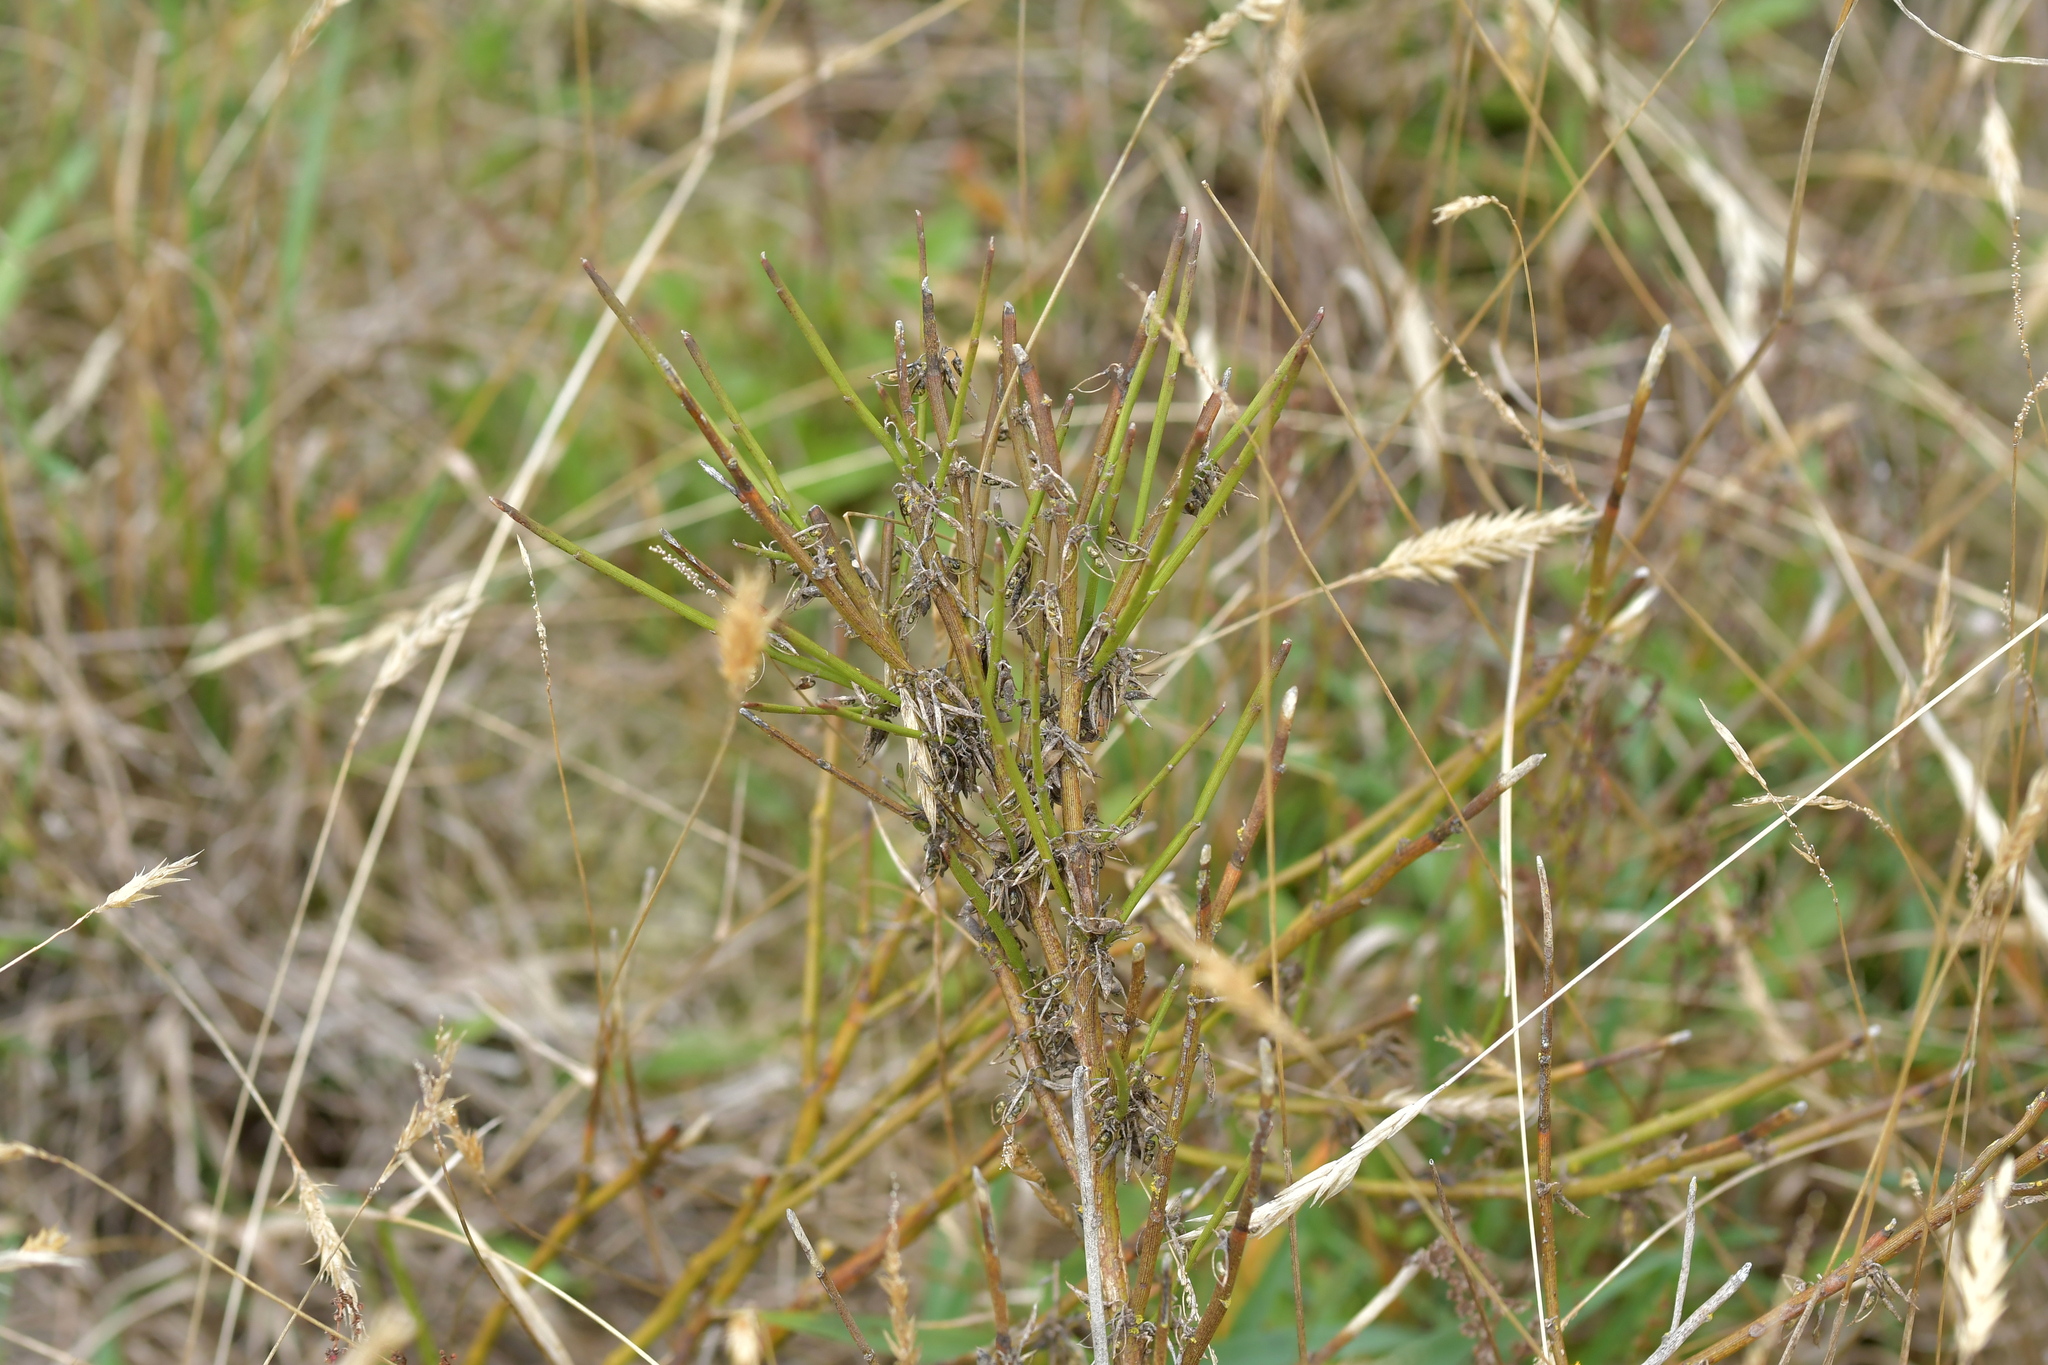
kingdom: Plantae
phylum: Tracheophyta
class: Magnoliopsida
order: Fabales
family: Fabaceae
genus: Carmichaelia
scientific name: Carmichaelia australis
